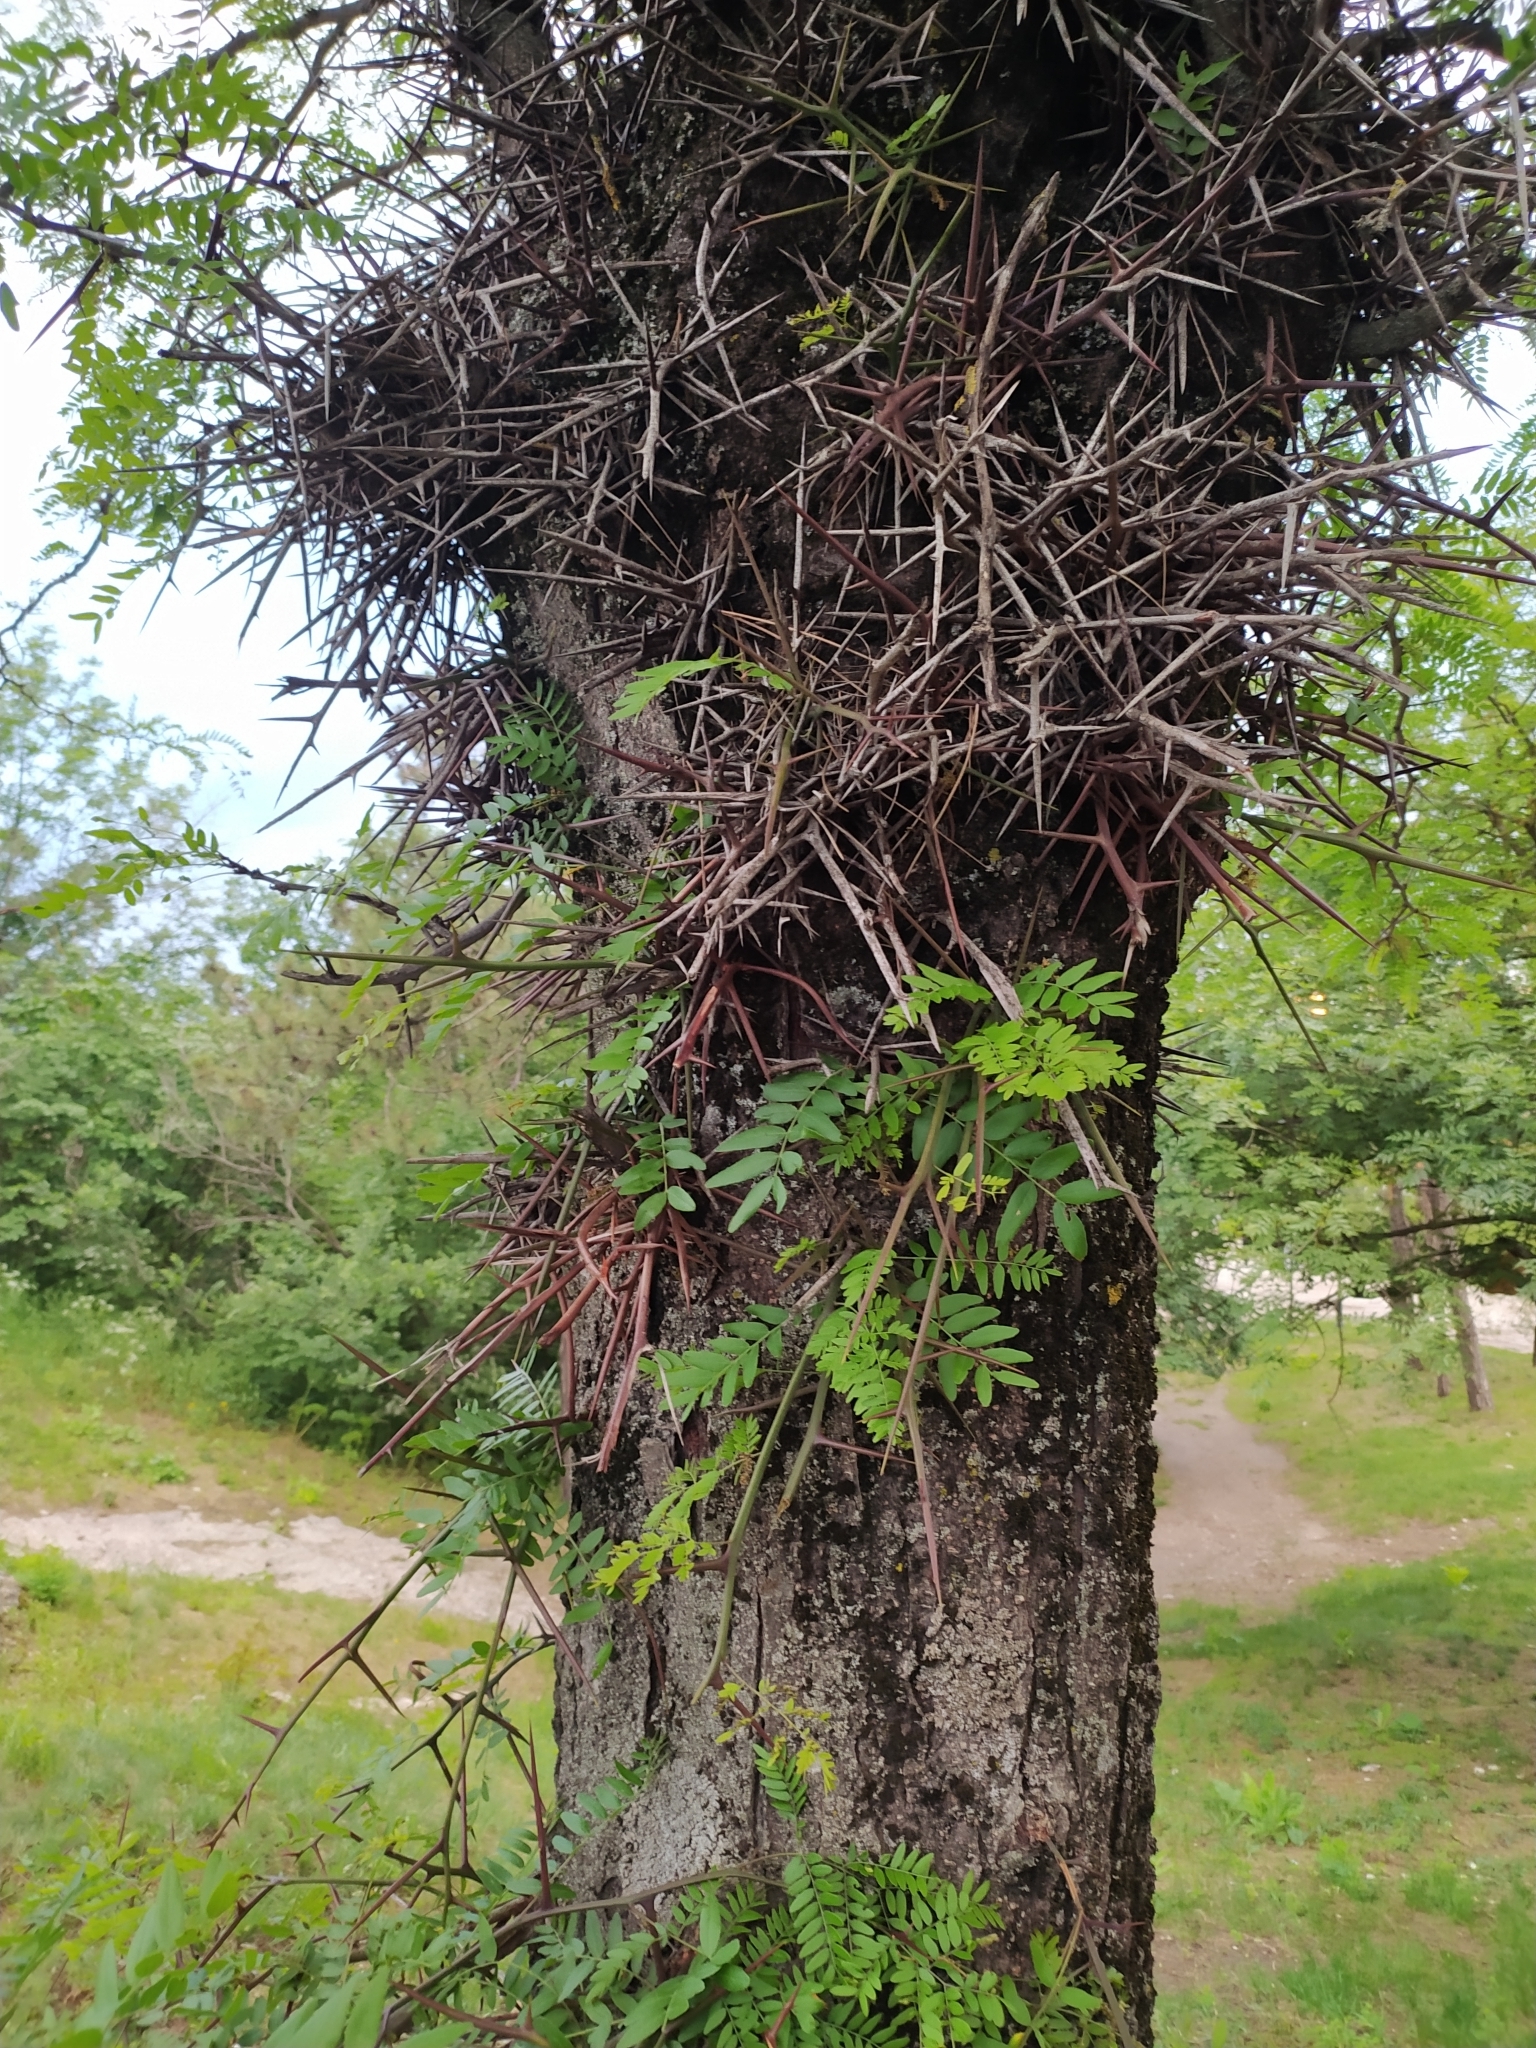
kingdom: Plantae
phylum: Tracheophyta
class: Magnoliopsida
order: Fabales
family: Fabaceae
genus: Gleditsia
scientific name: Gleditsia triacanthos
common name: Common honeylocust
